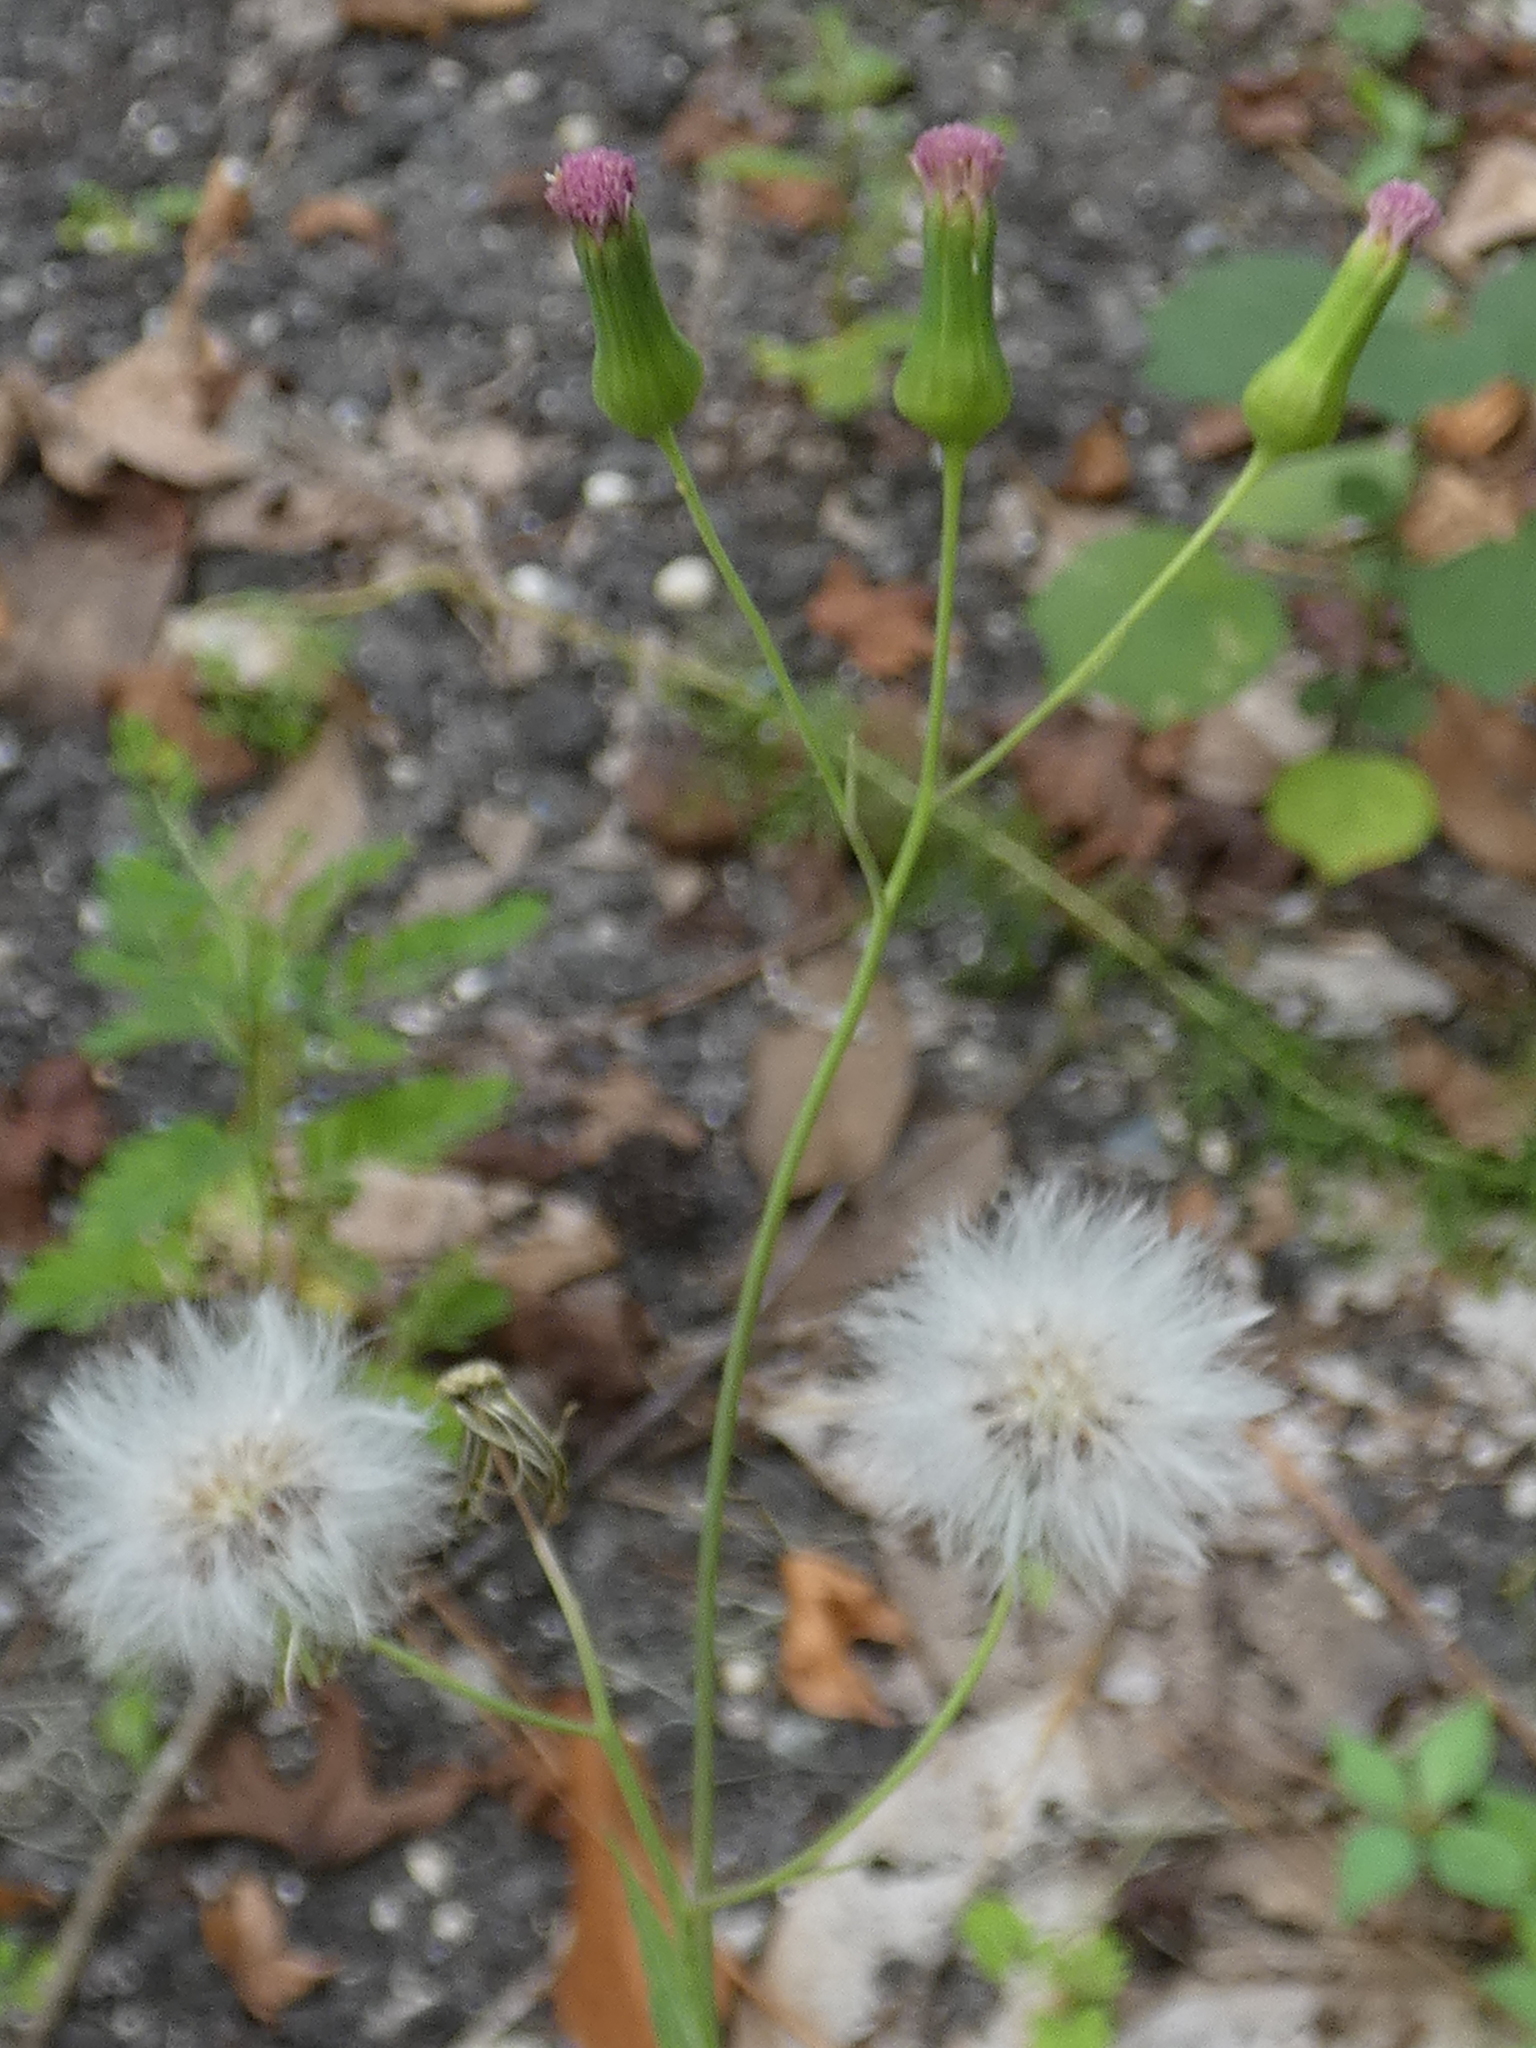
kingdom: Plantae
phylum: Tracheophyta
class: Magnoliopsida
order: Asterales
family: Asteraceae
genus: Emilia
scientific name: Emilia sonchifolia
